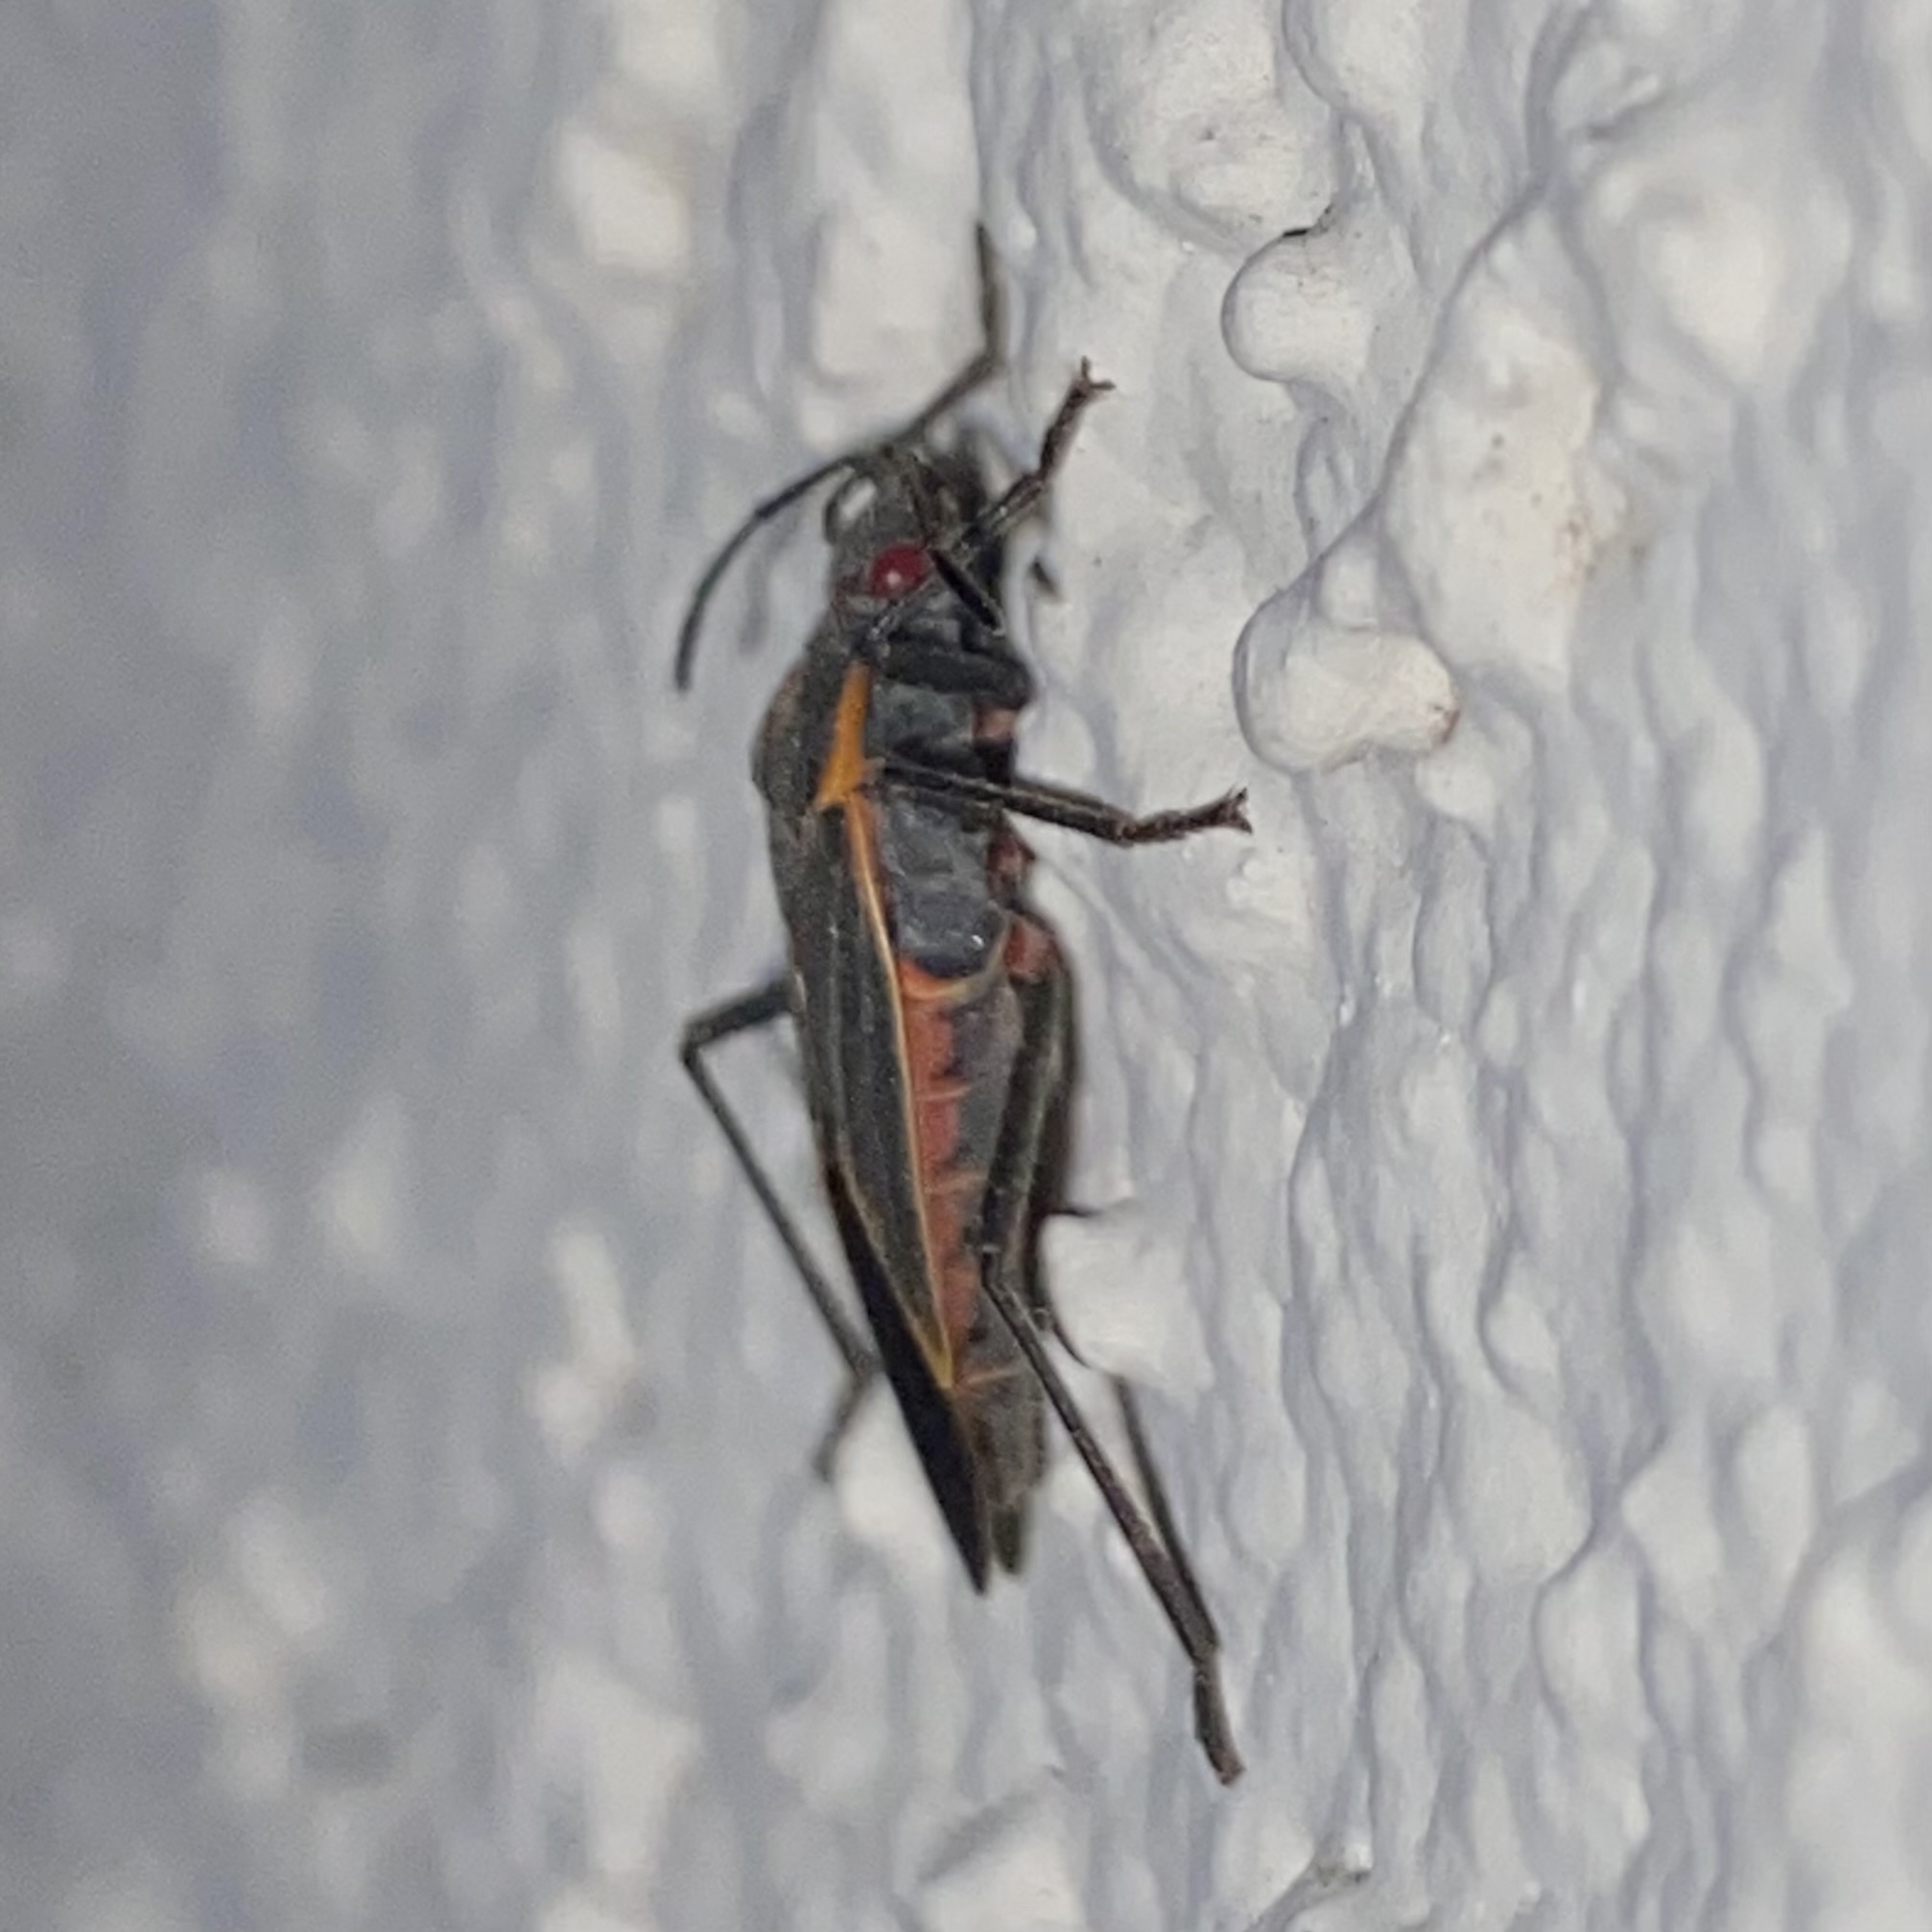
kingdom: Animalia
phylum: Arthropoda
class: Insecta
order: Hemiptera
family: Rhopalidae
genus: Boisea
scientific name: Boisea trivittata
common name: Boxelder bug
